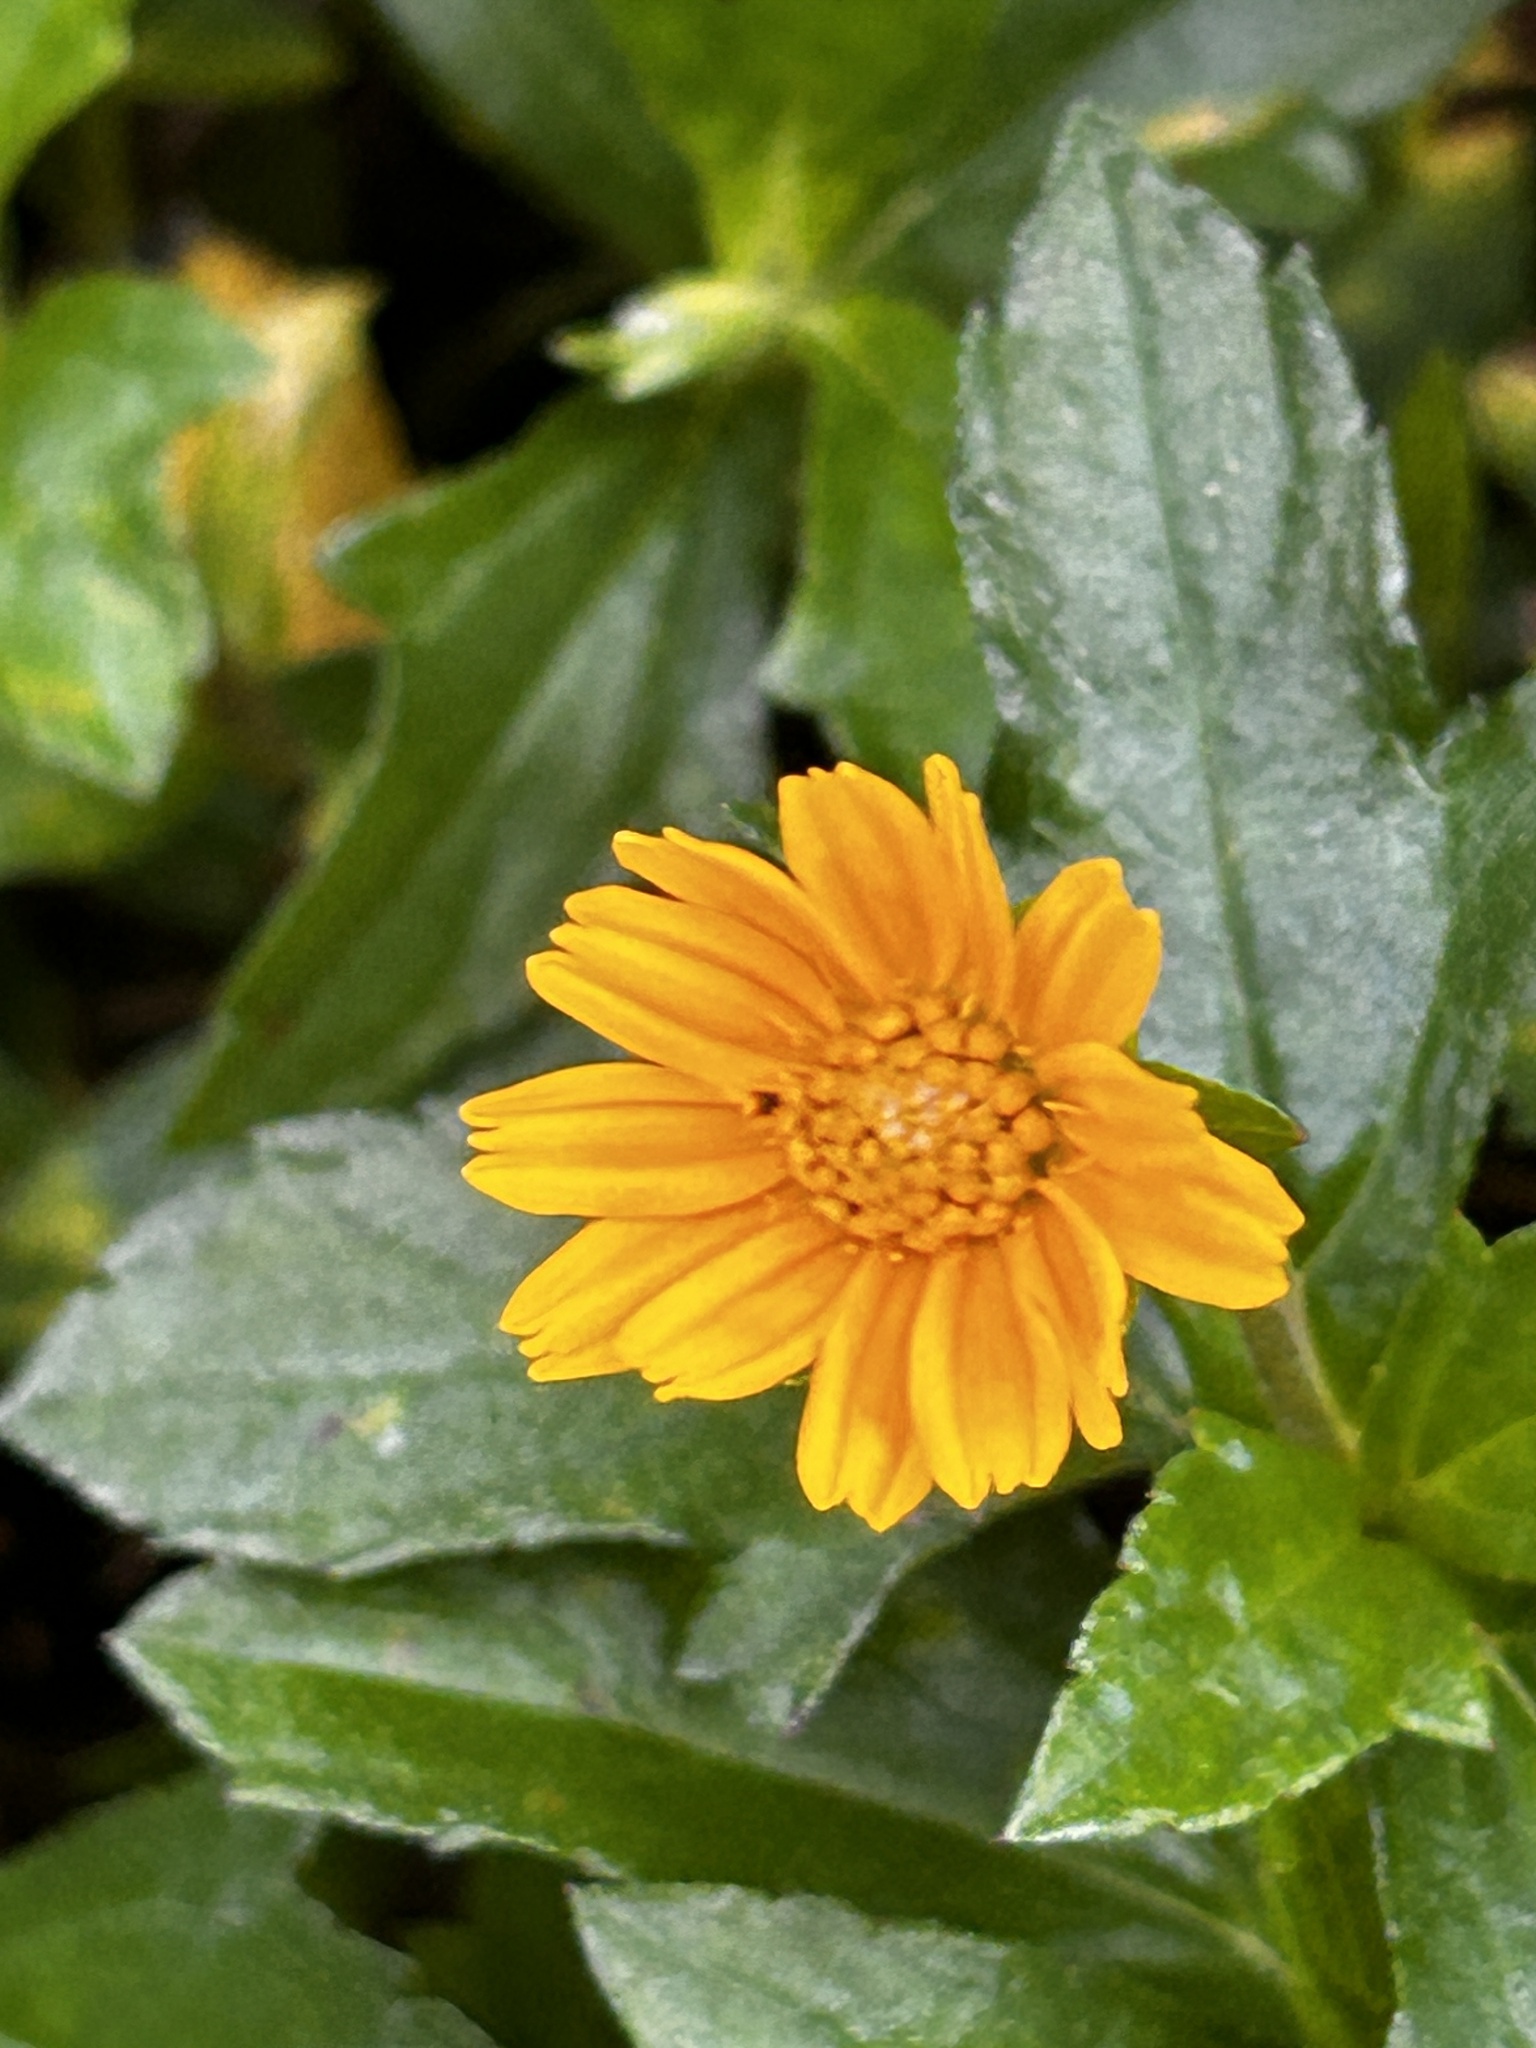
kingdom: Plantae
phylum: Tracheophyta
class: Magnoliopsida
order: Asterales
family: Asteraceae
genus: Sphagneticola
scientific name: Sphagneticola trilobata
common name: Bay biscayne creeping-oxeye
